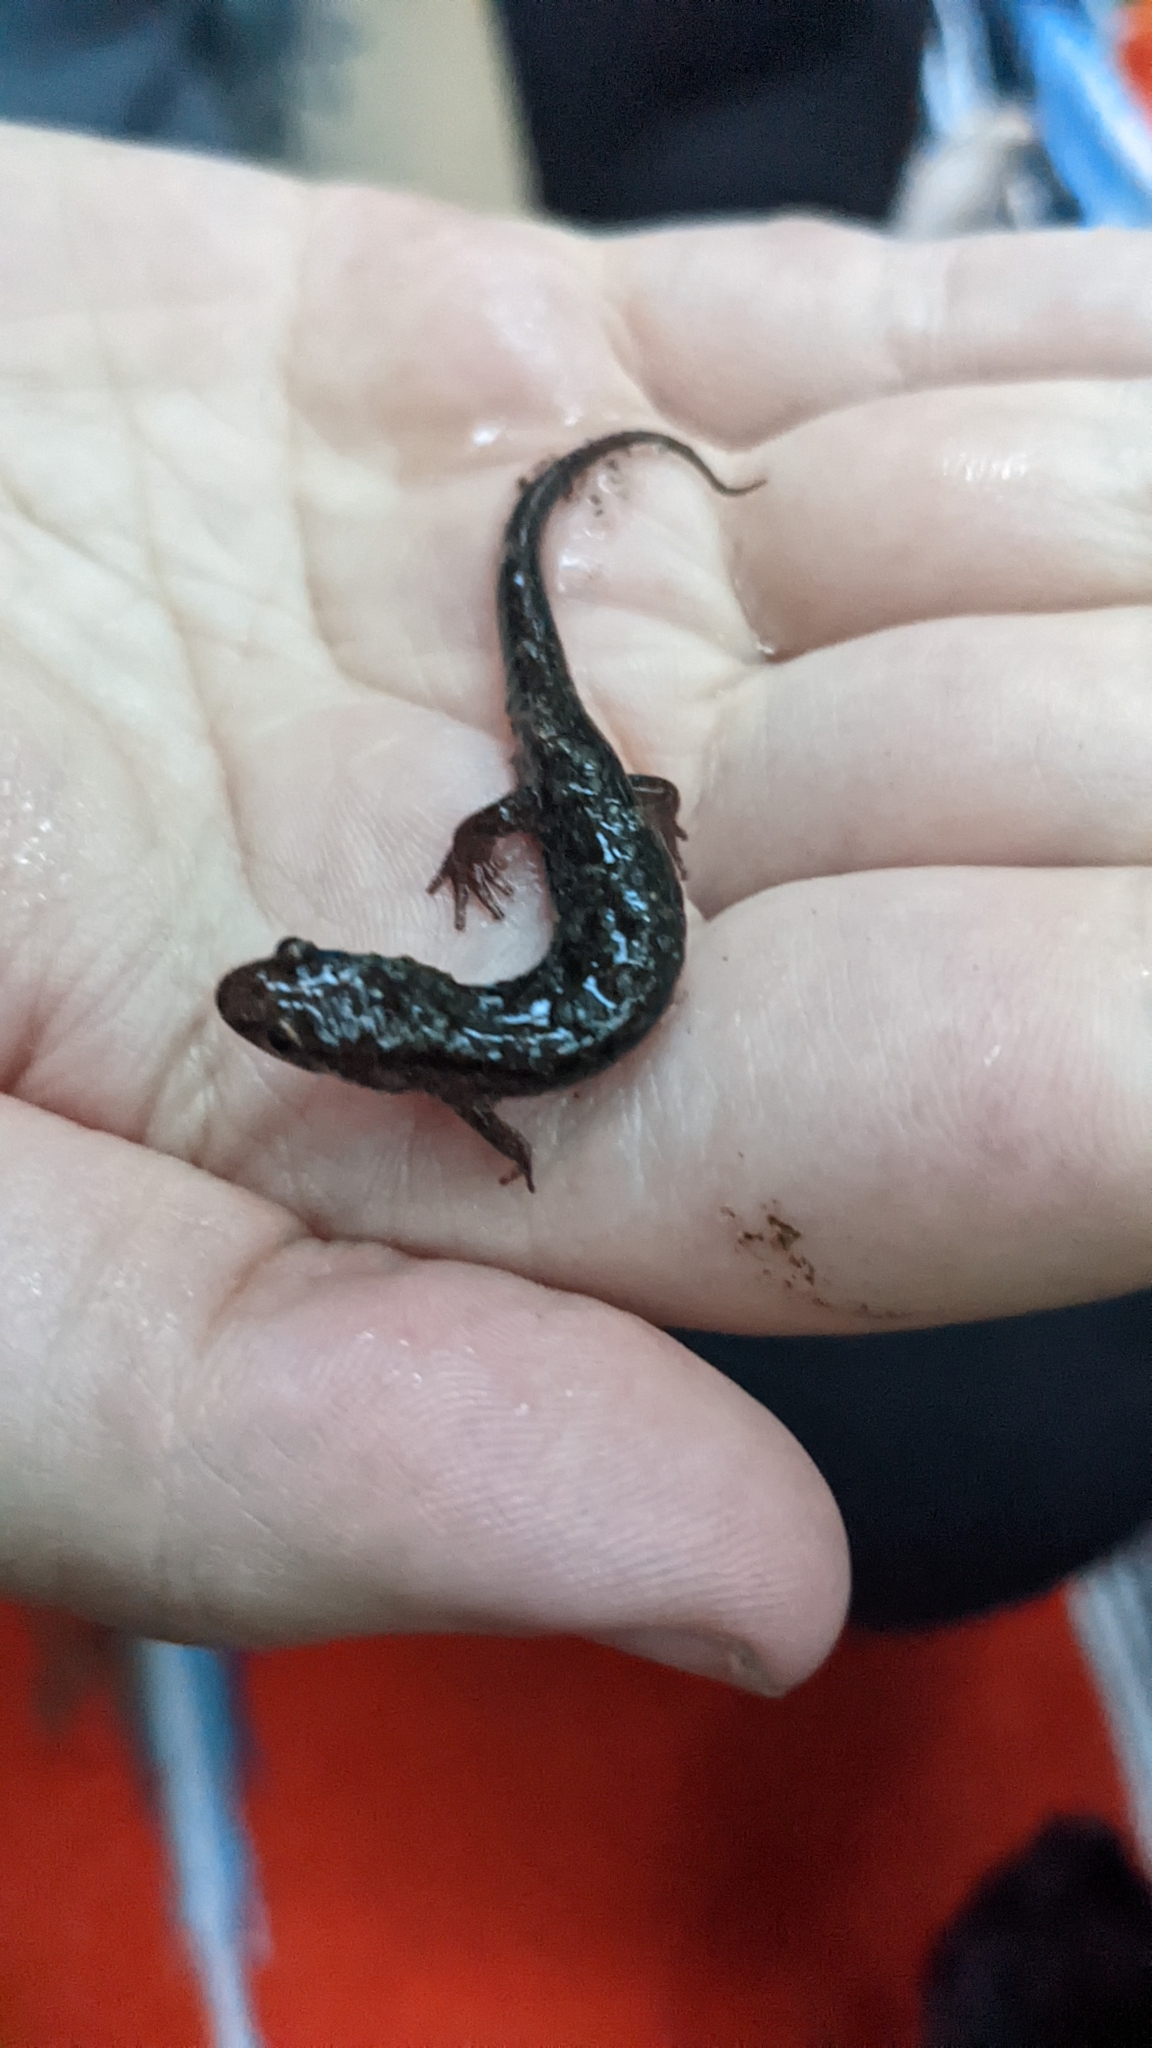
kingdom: Animalia
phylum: Chordata
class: Amphibia
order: Caudata
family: Plethodontidae
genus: Desmognathus
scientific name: Desmognathus ocoee
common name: Ocoee salamander
